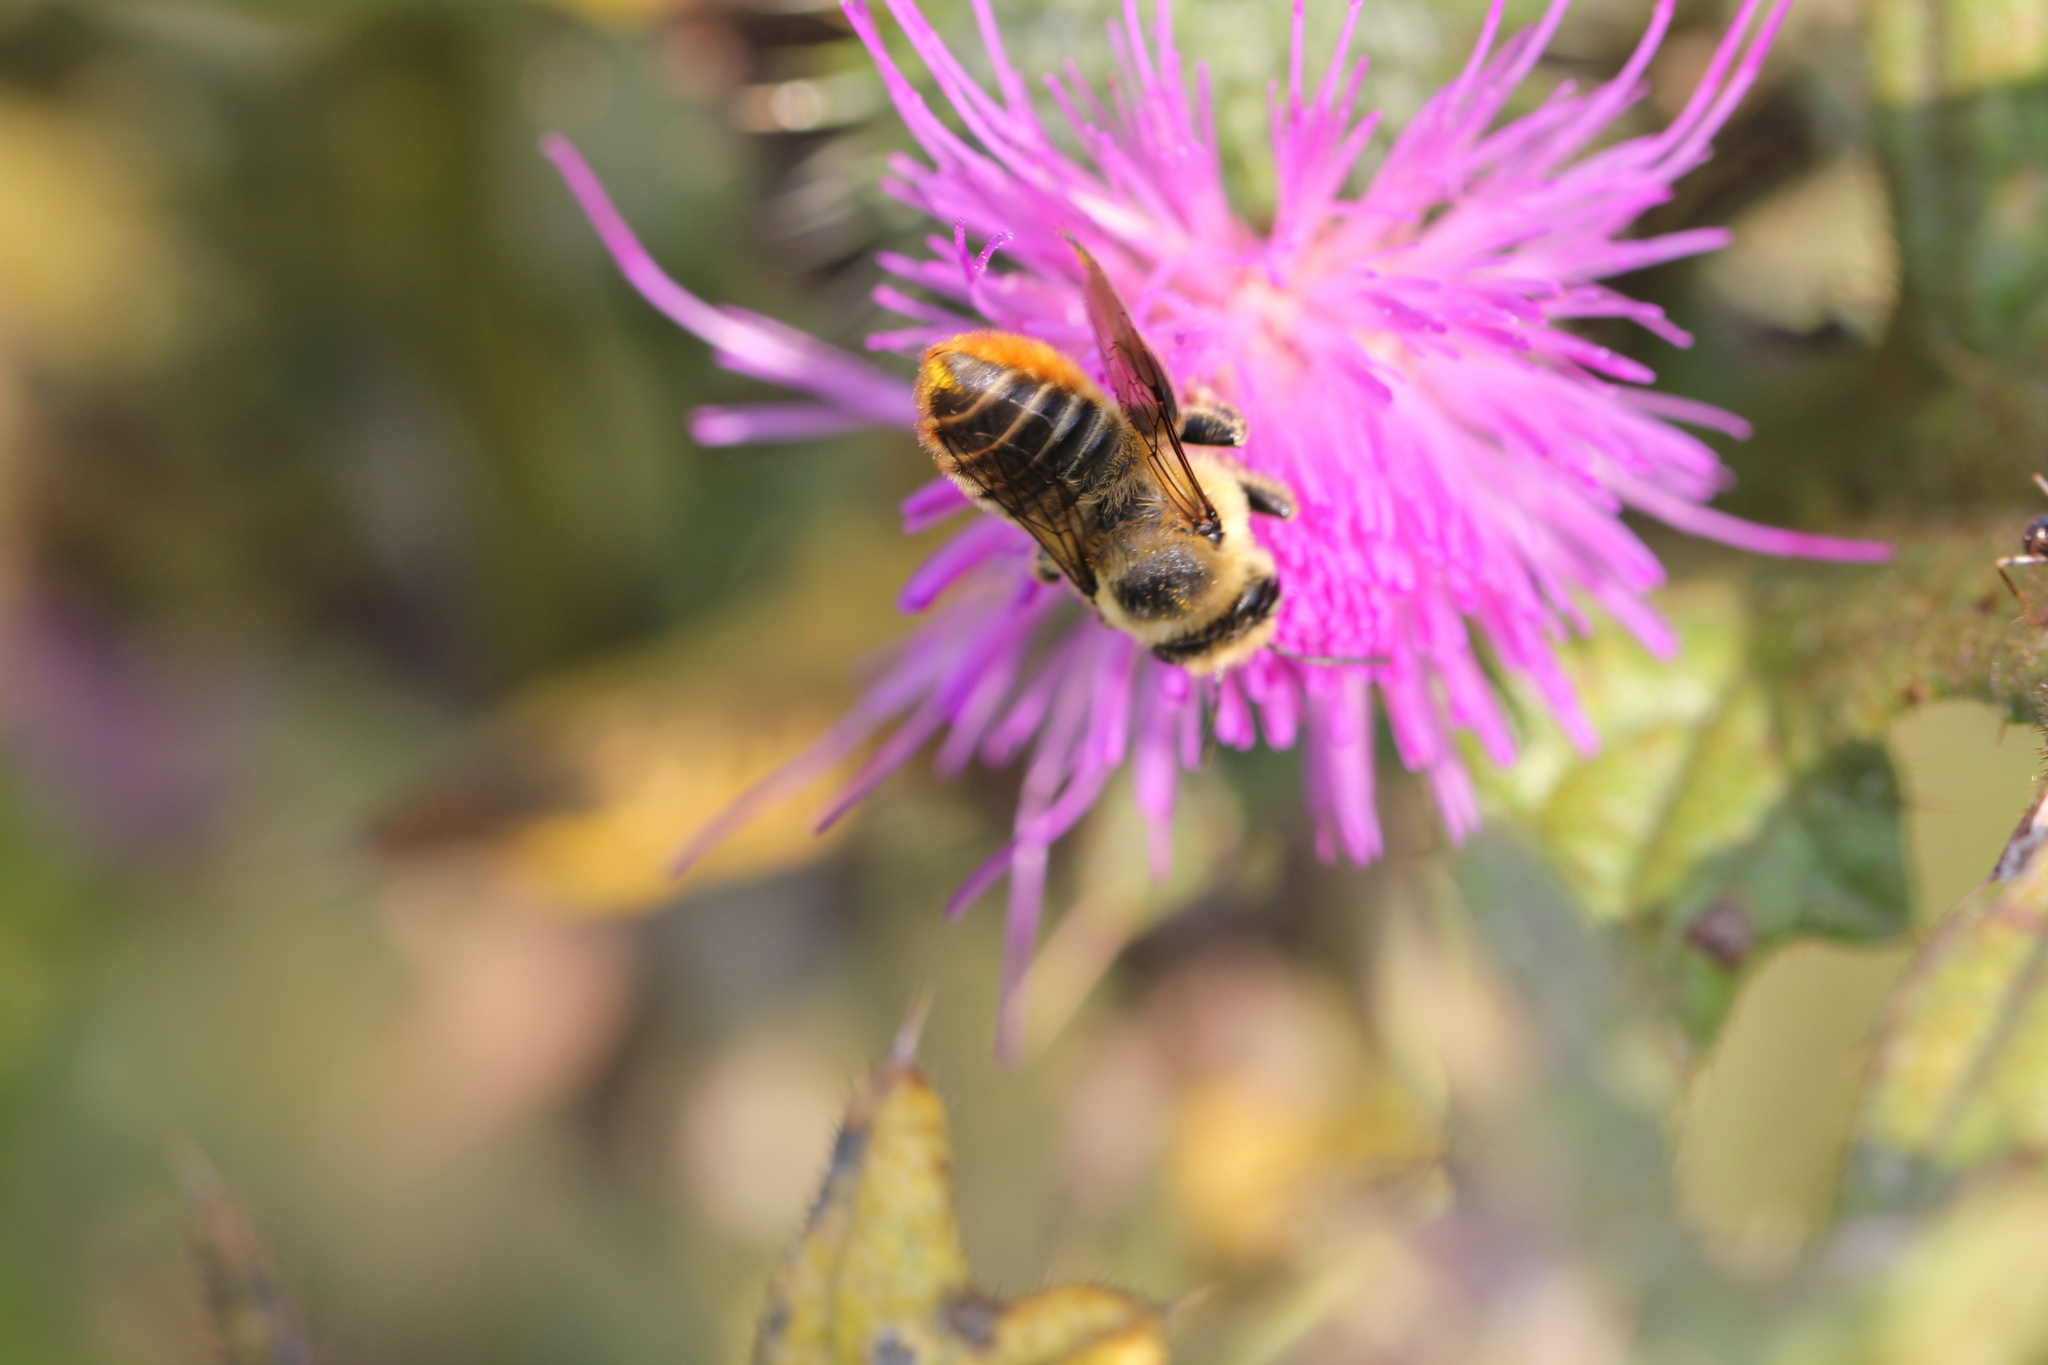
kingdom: Animalia
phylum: Arthropoda
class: Insecta
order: Hymenoptera
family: Megachilidae
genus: Megachile
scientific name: Megachile latimanus
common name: Leafcutting bee
